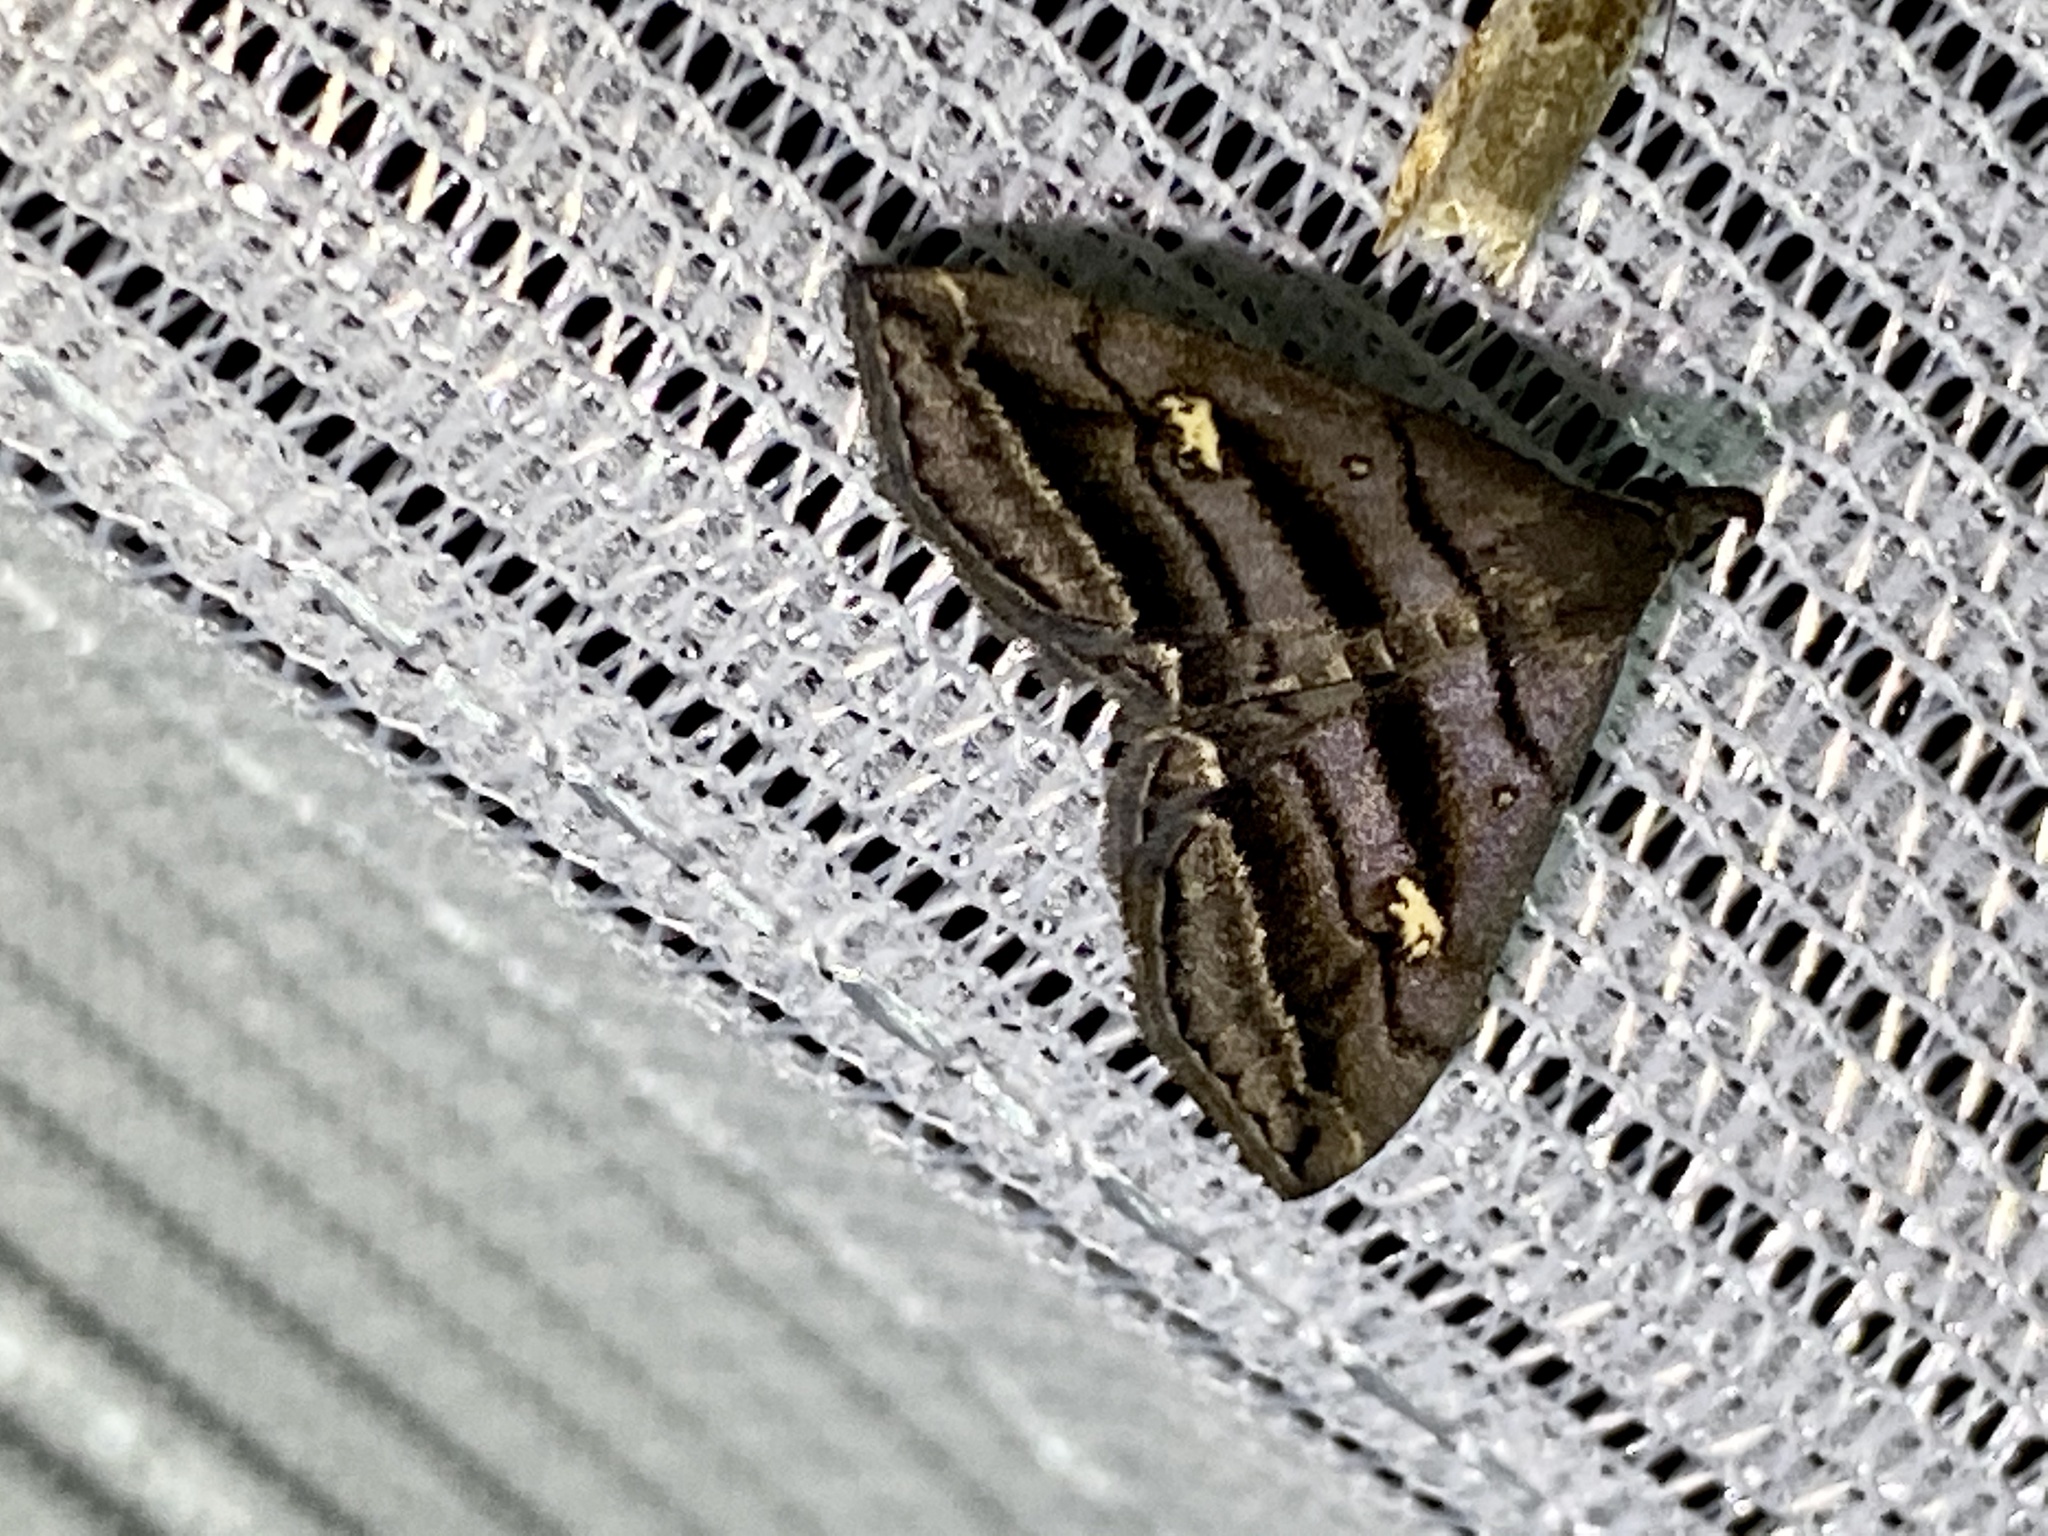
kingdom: Animalia
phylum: Arthropoda
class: Insecta
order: Lepidoptera
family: Erebidae
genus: Paracolax
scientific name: Paracolax pryeri
